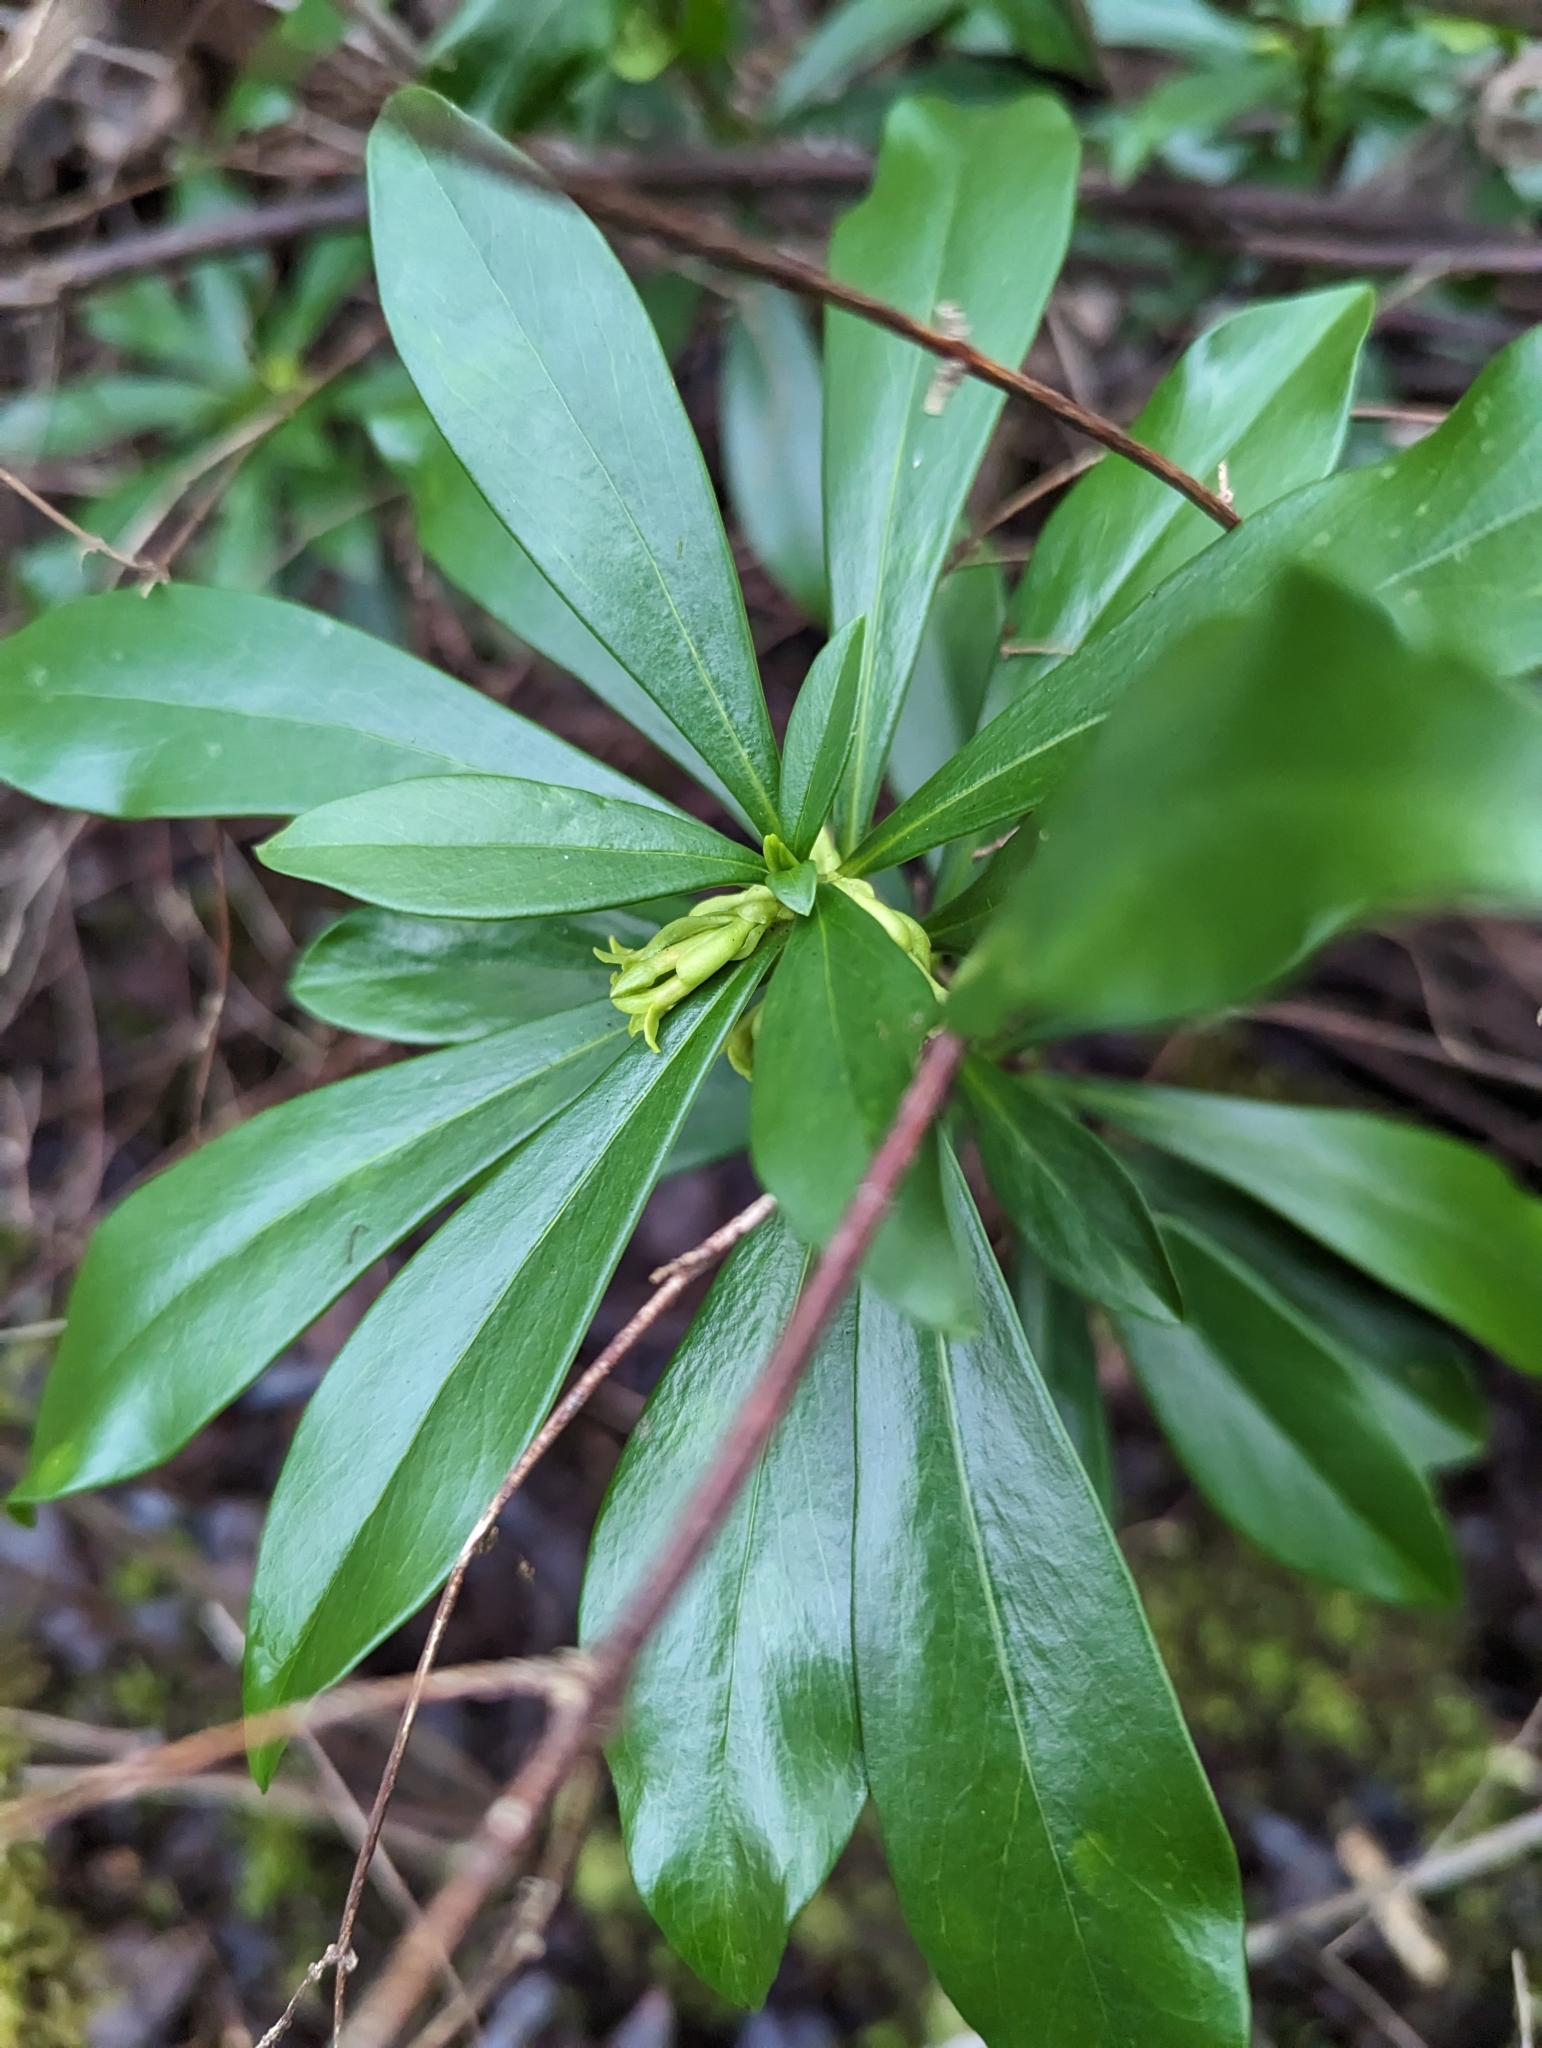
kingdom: Plantae
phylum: Tracheophyta
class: Magnoliopsida
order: Malvales
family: Thymelaeaceae
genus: Daphne
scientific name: Daphne laureola
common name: Spurge-laurel
